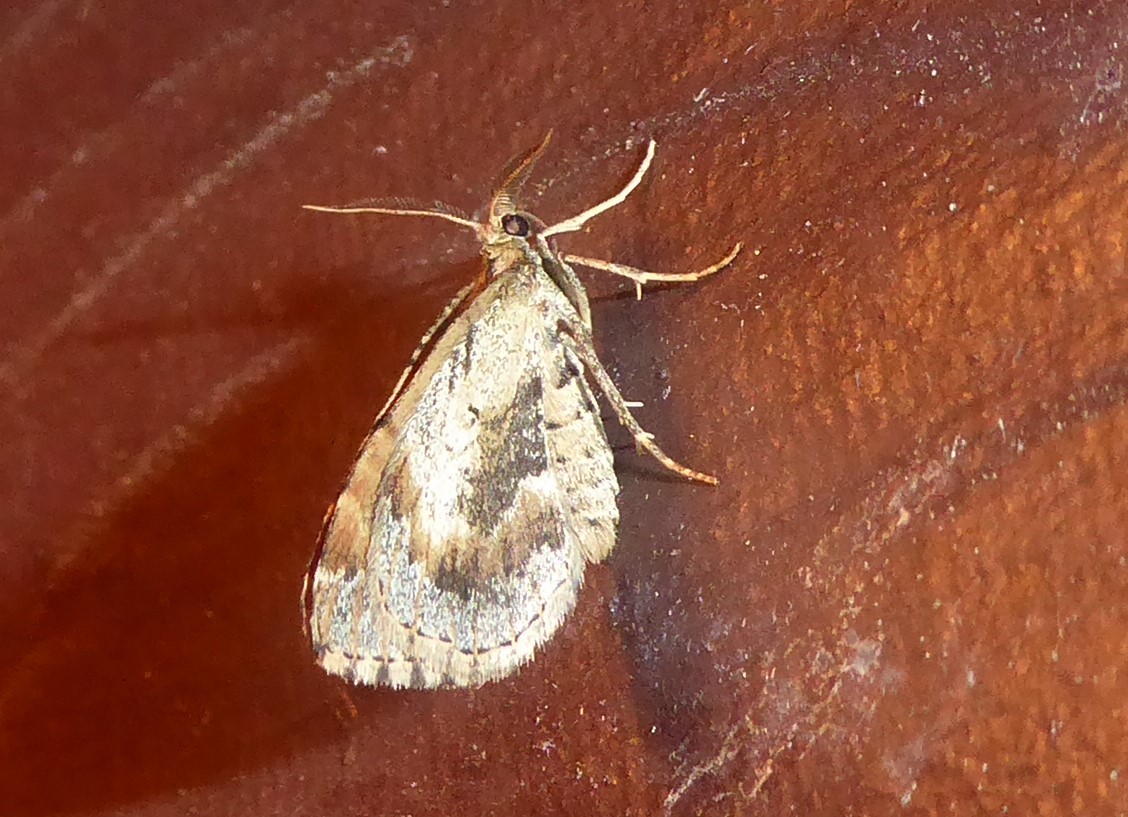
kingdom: Animalia
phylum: Arthropoda
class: Insecta
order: Lepidoptera
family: Geometridae
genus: Asaphodes
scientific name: Asaphodes aegrota
